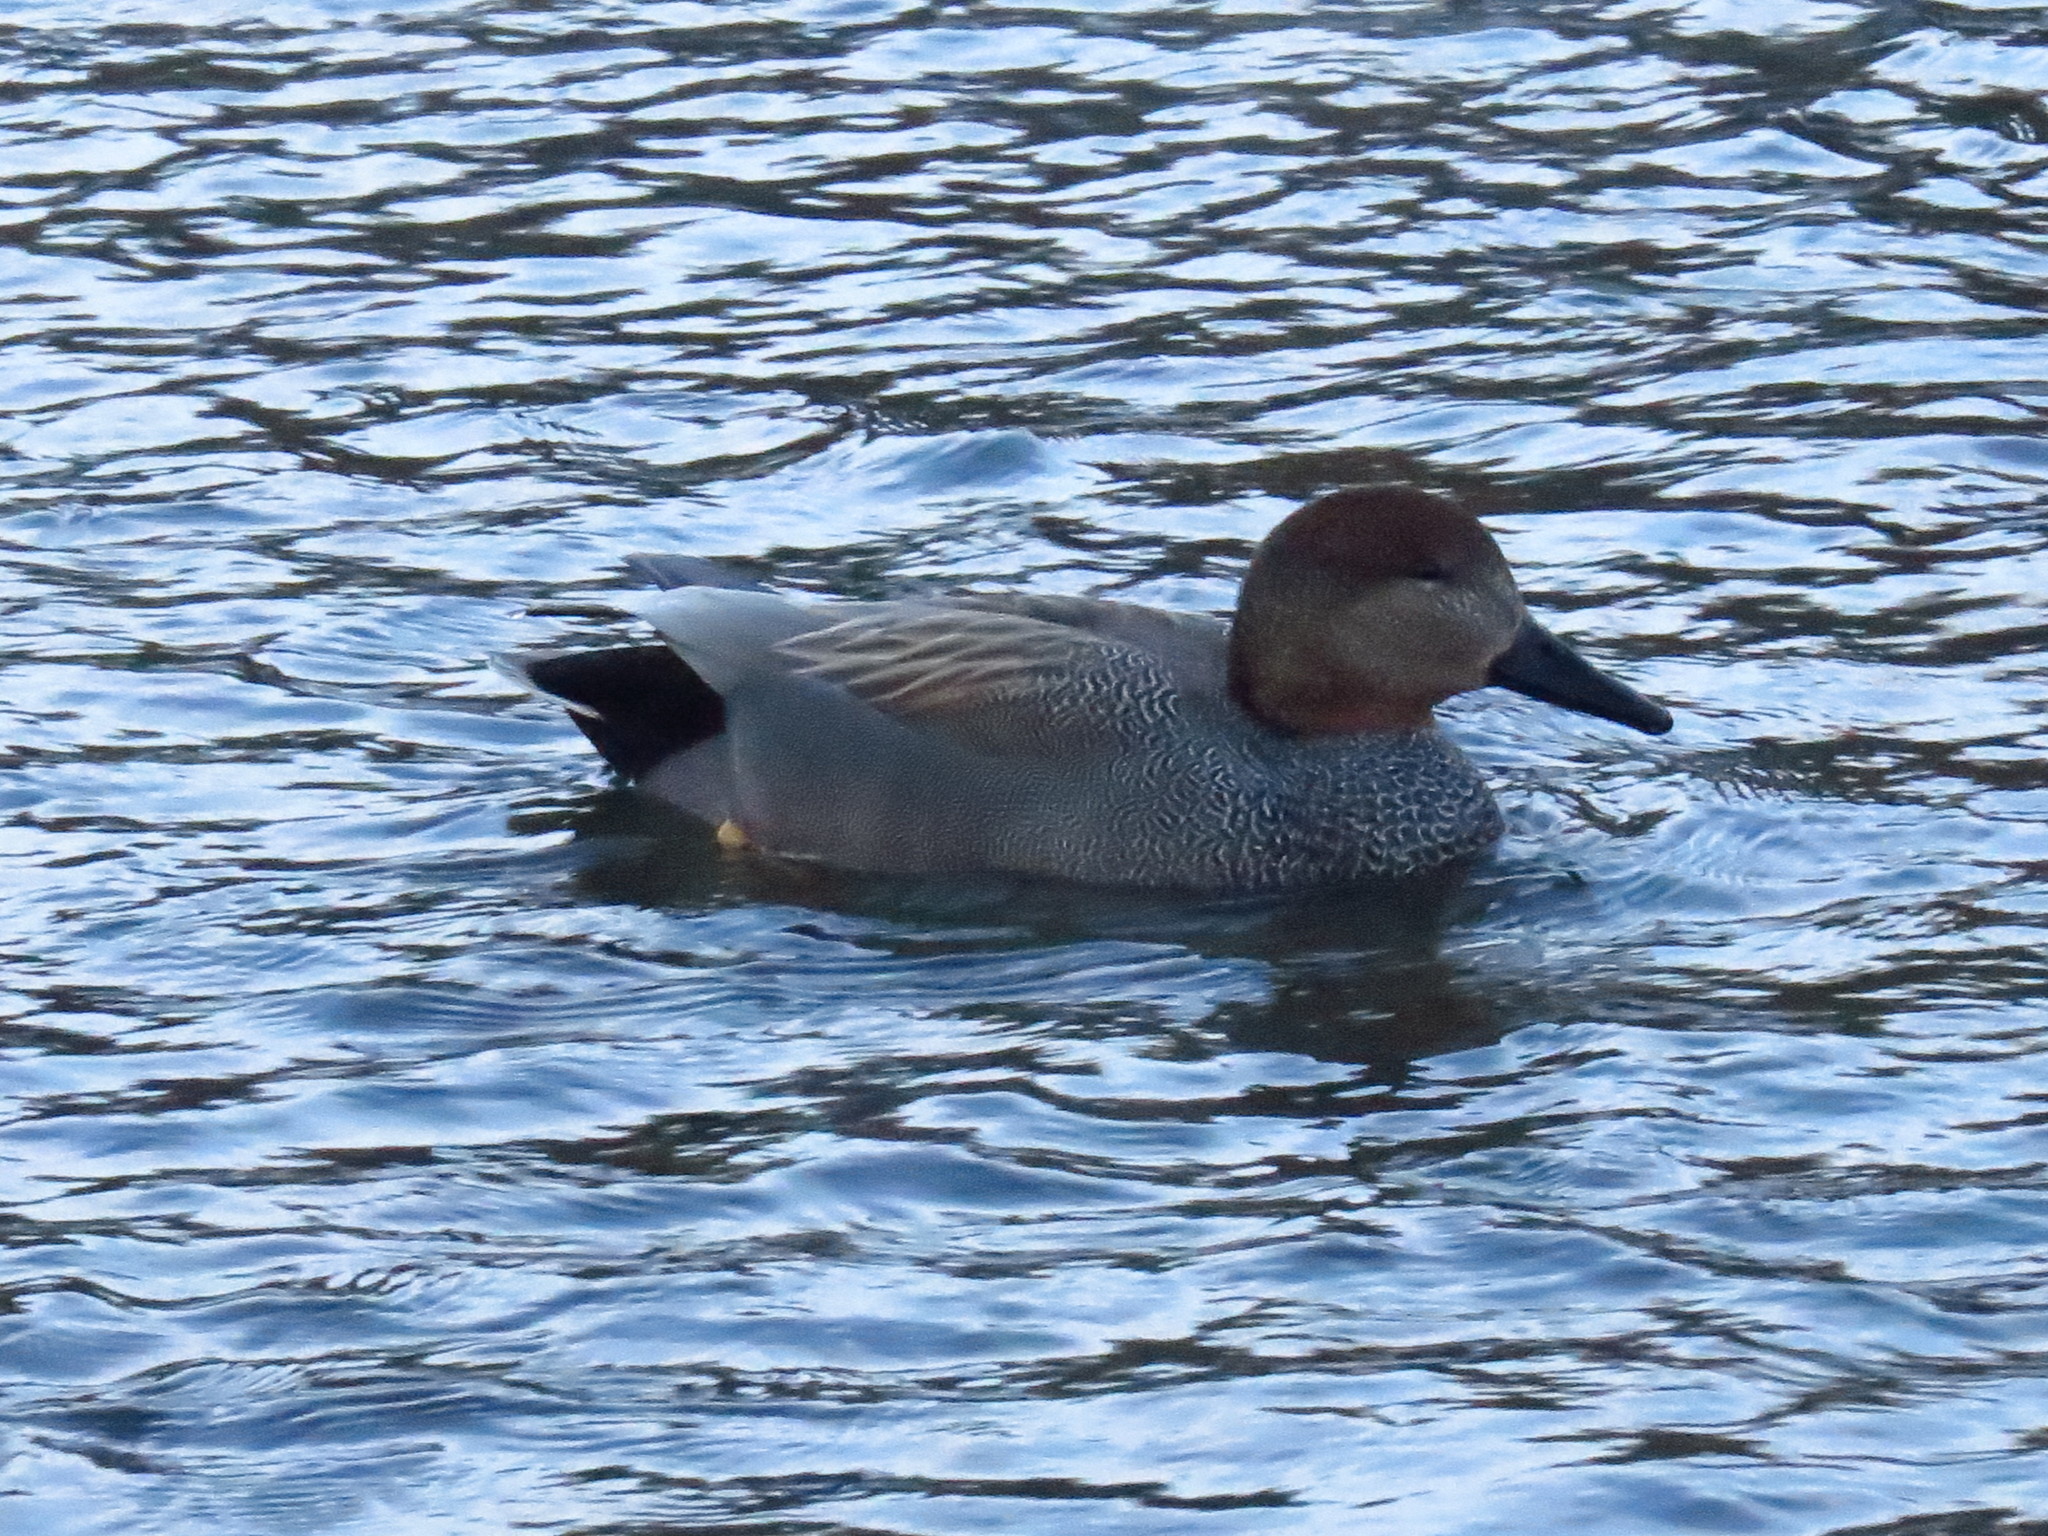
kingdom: Animalia
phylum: Chordata
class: Aves
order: Anseriformes
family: Anatidae
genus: Mareca
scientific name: Mareca strepera
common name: Gadwall
